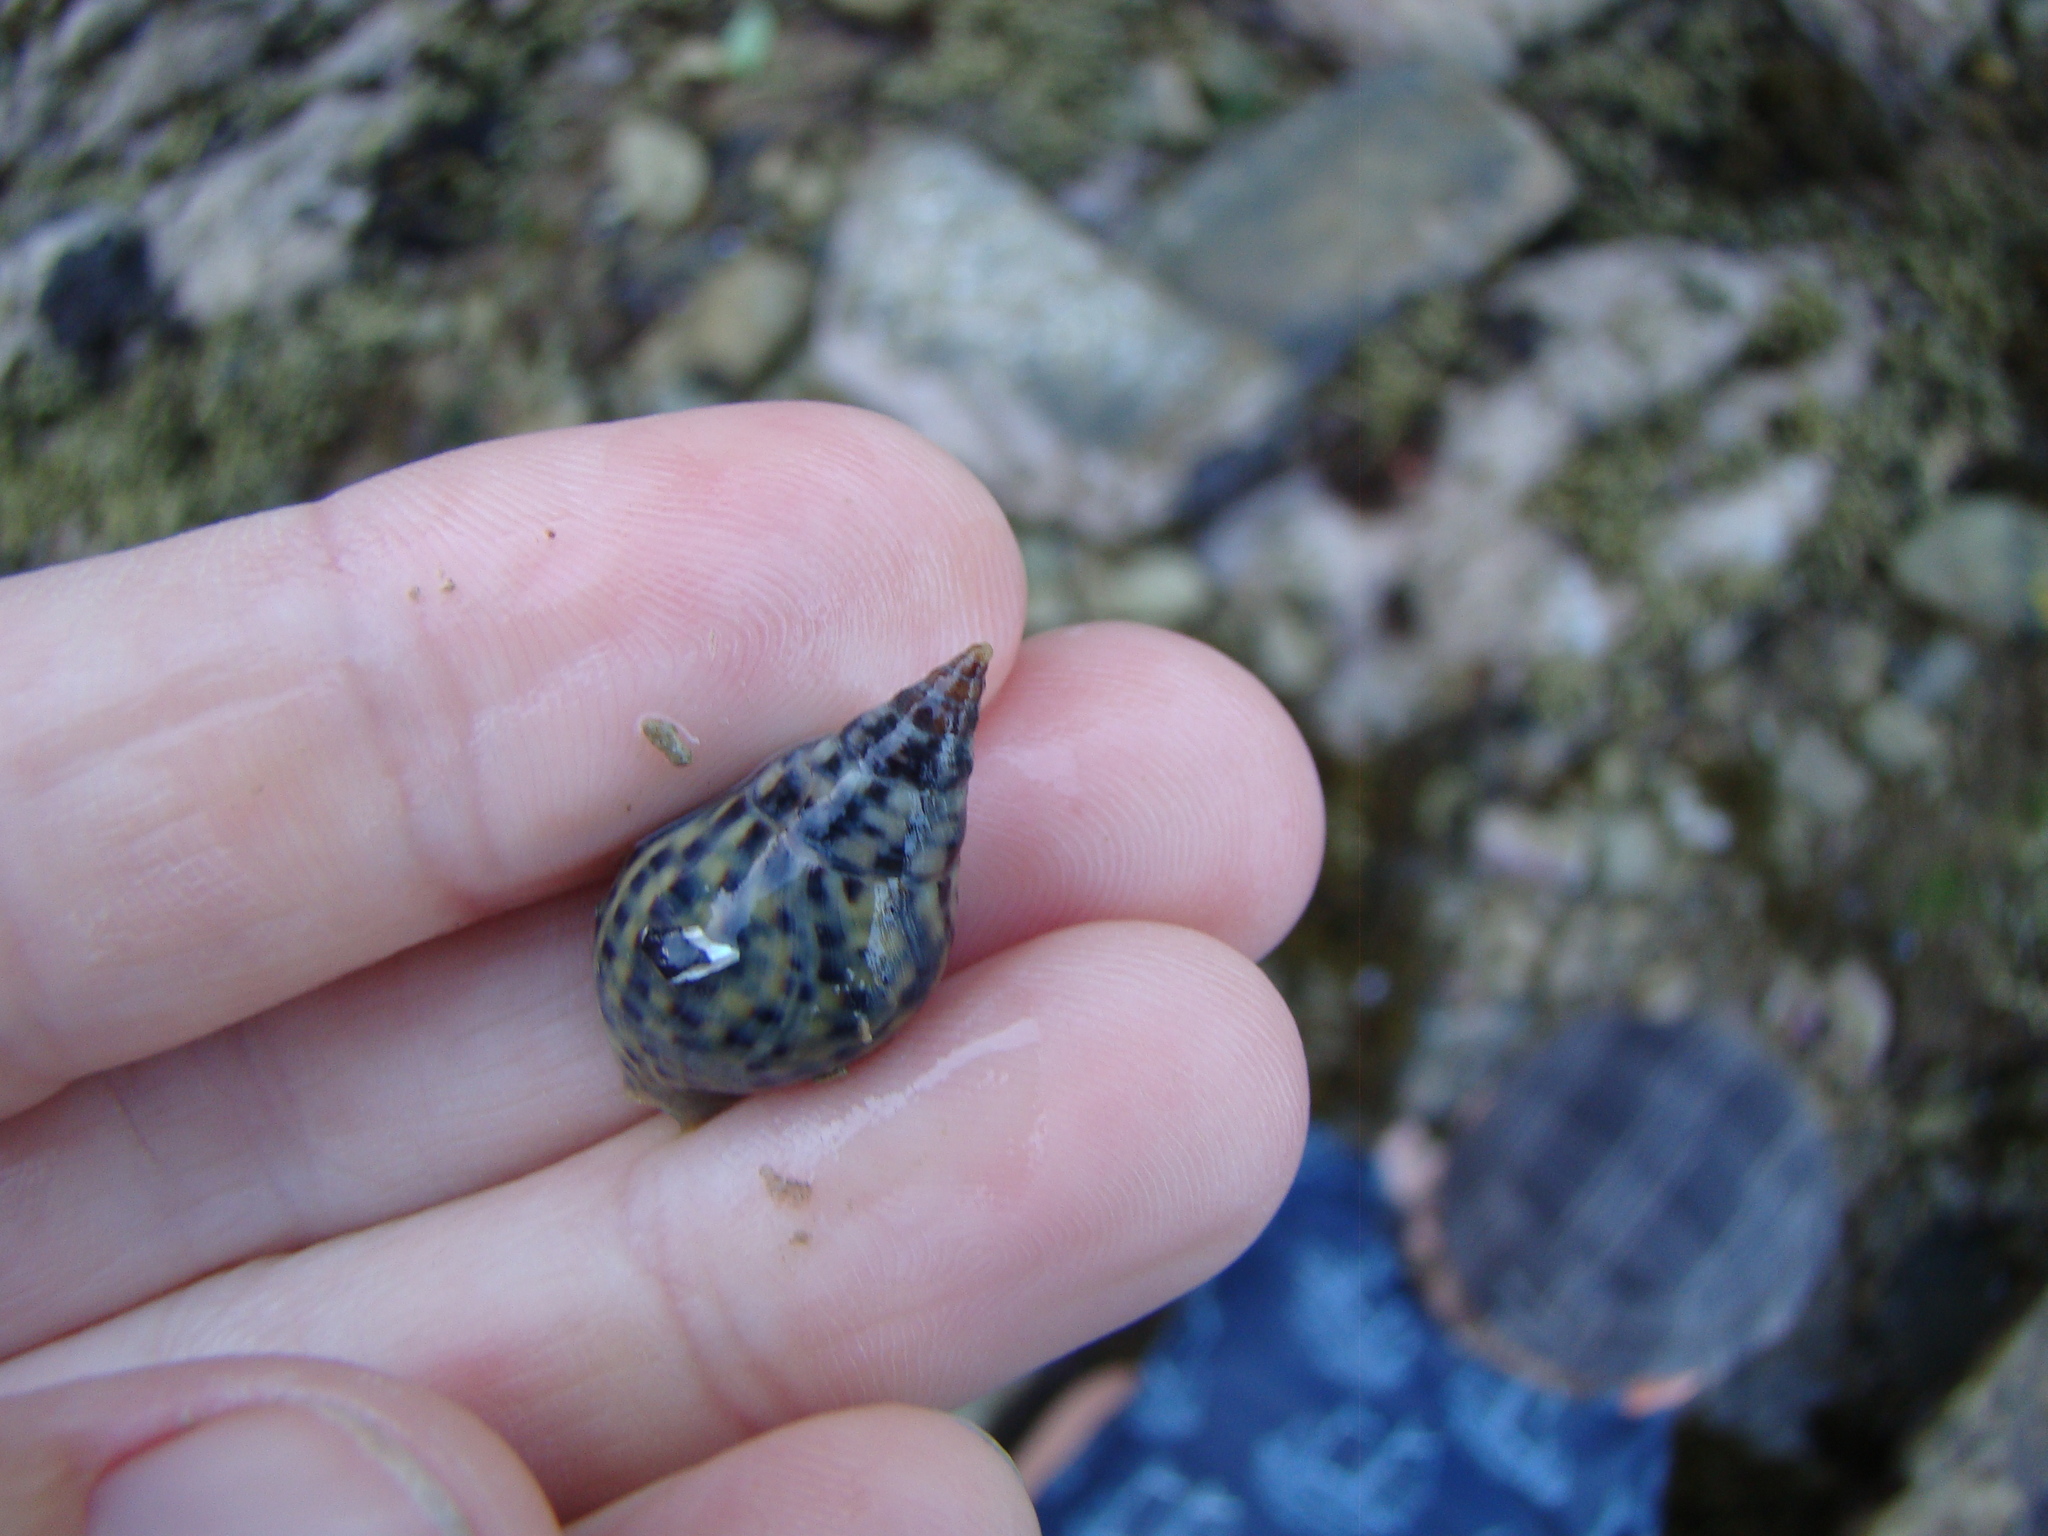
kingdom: Animalia
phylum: Mollusca
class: Gastropoda
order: Neogastropoda
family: Cominellidae
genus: Cominella
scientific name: Cominella maculosa
